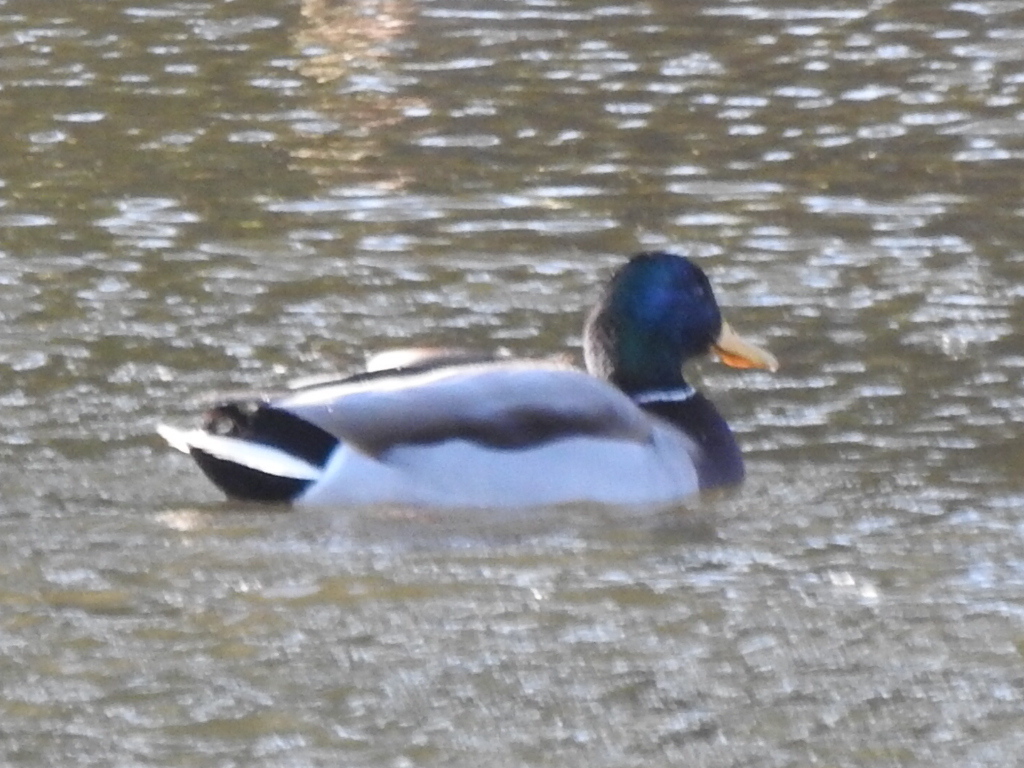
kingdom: Animalia
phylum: Chordata
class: Aves
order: Anseriformes
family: Anatidae
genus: Anas
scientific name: Anas platyrhynchos
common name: Mallard
